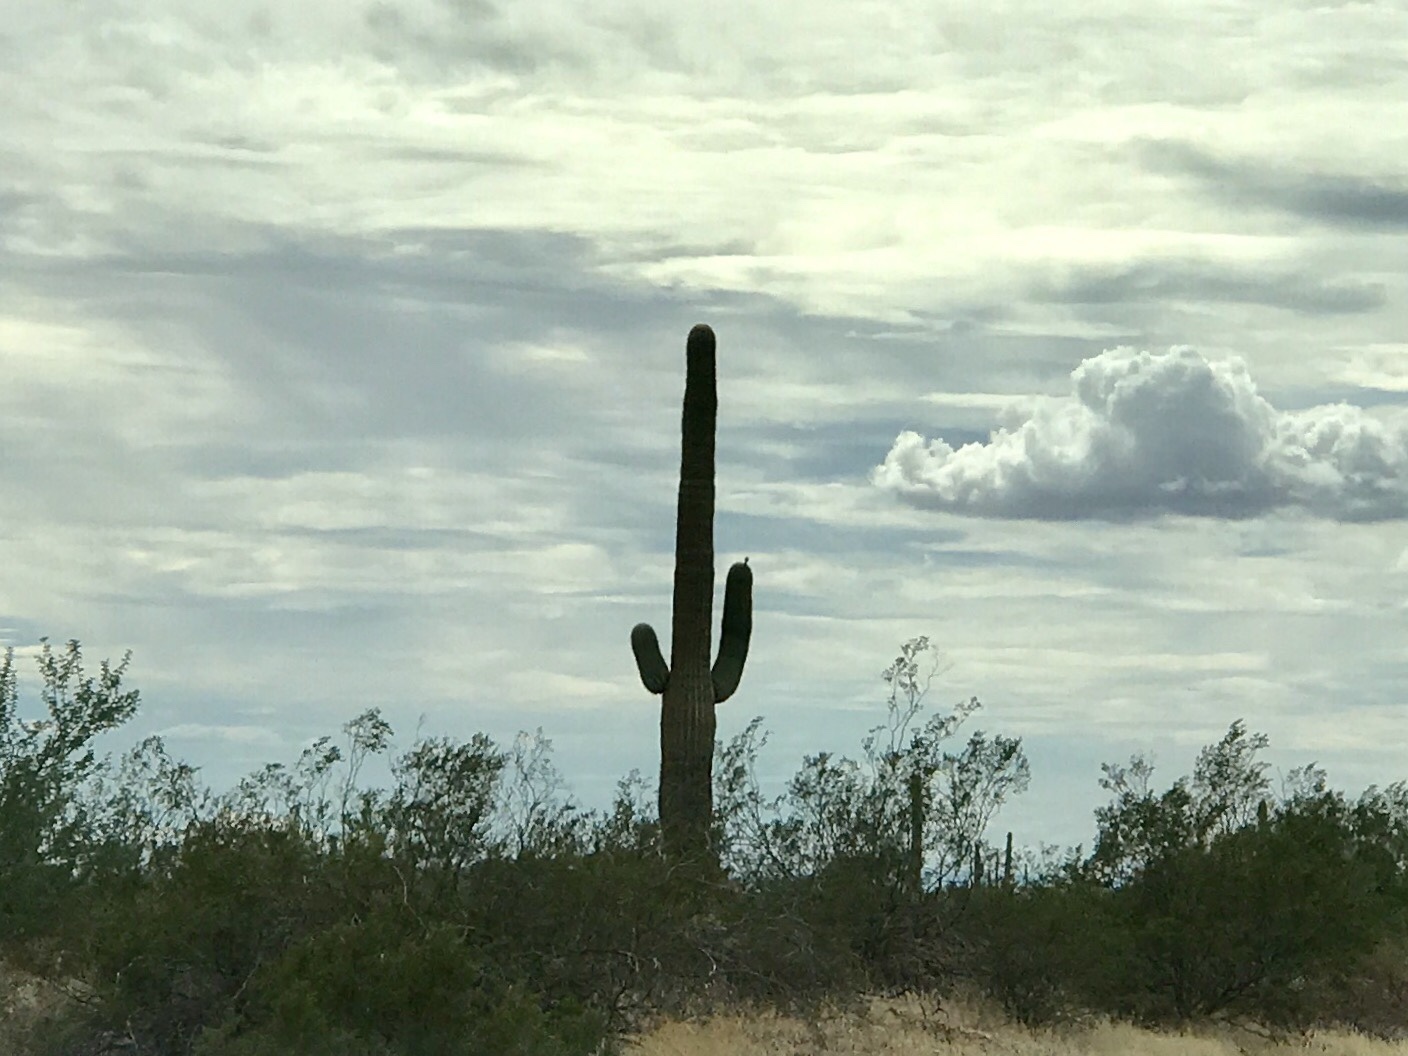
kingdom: Plantae
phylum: Tracheophyta
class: Magnoliopsida
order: Caryophyllales
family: Cactaceae
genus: Carnegiea
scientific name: Carnegiea gigantea
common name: Saguaro
